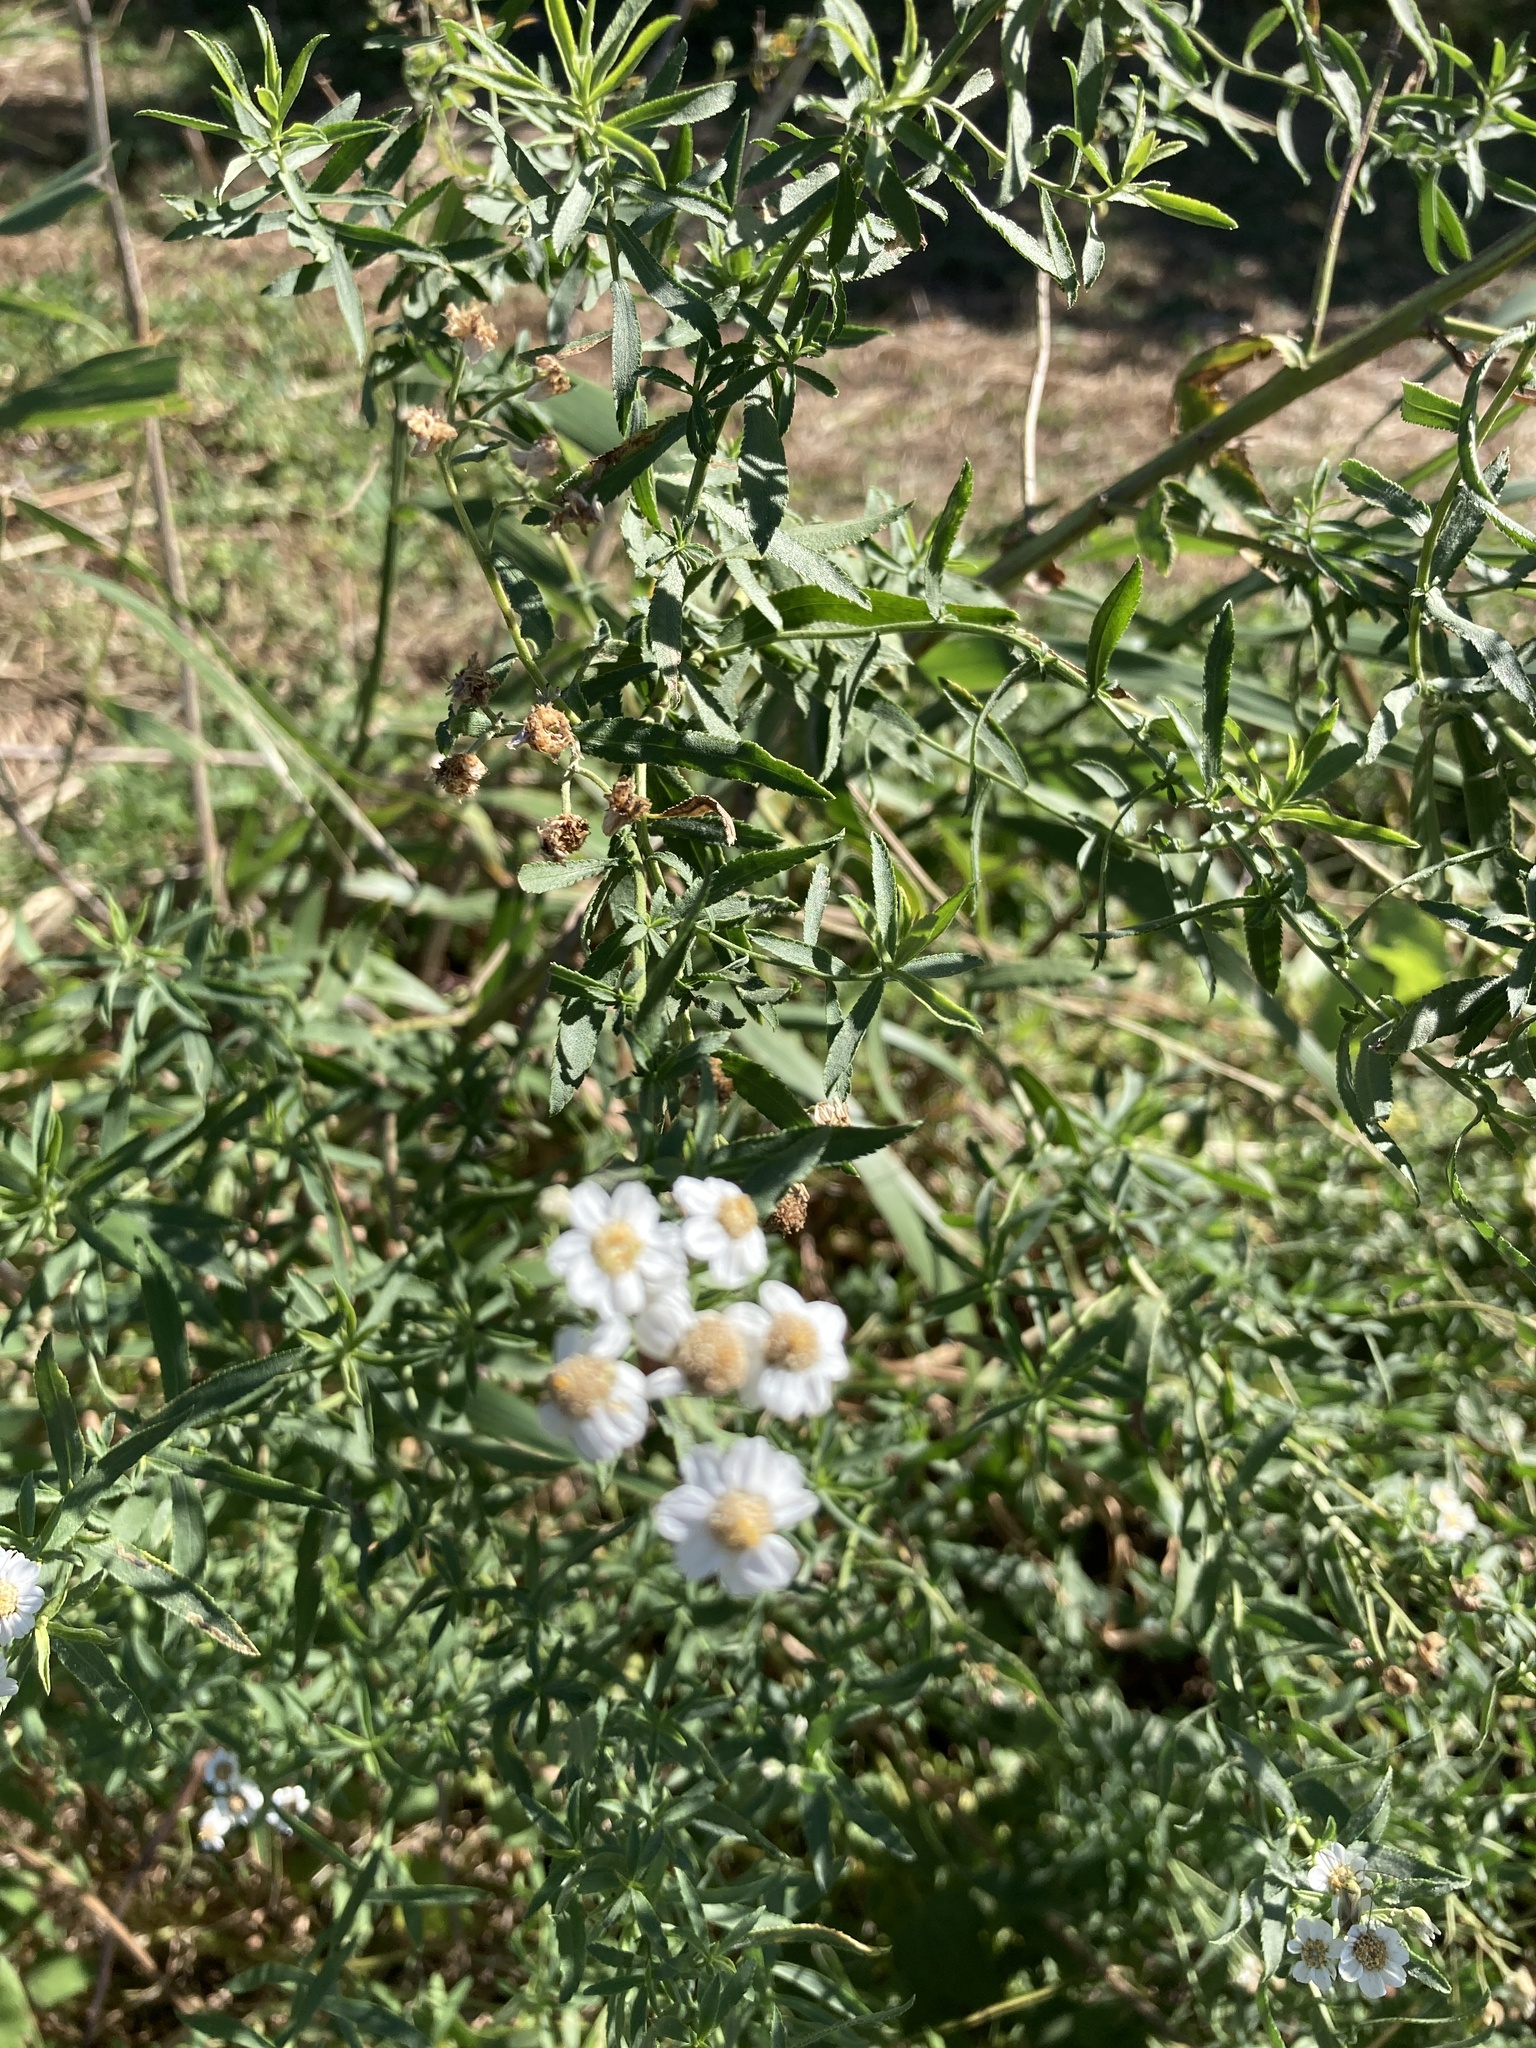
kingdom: Plantae
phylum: Tracheophyta
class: Magnoliopsida
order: Asterales
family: Asteraceae
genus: Achillea
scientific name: Achillea salicifolia
